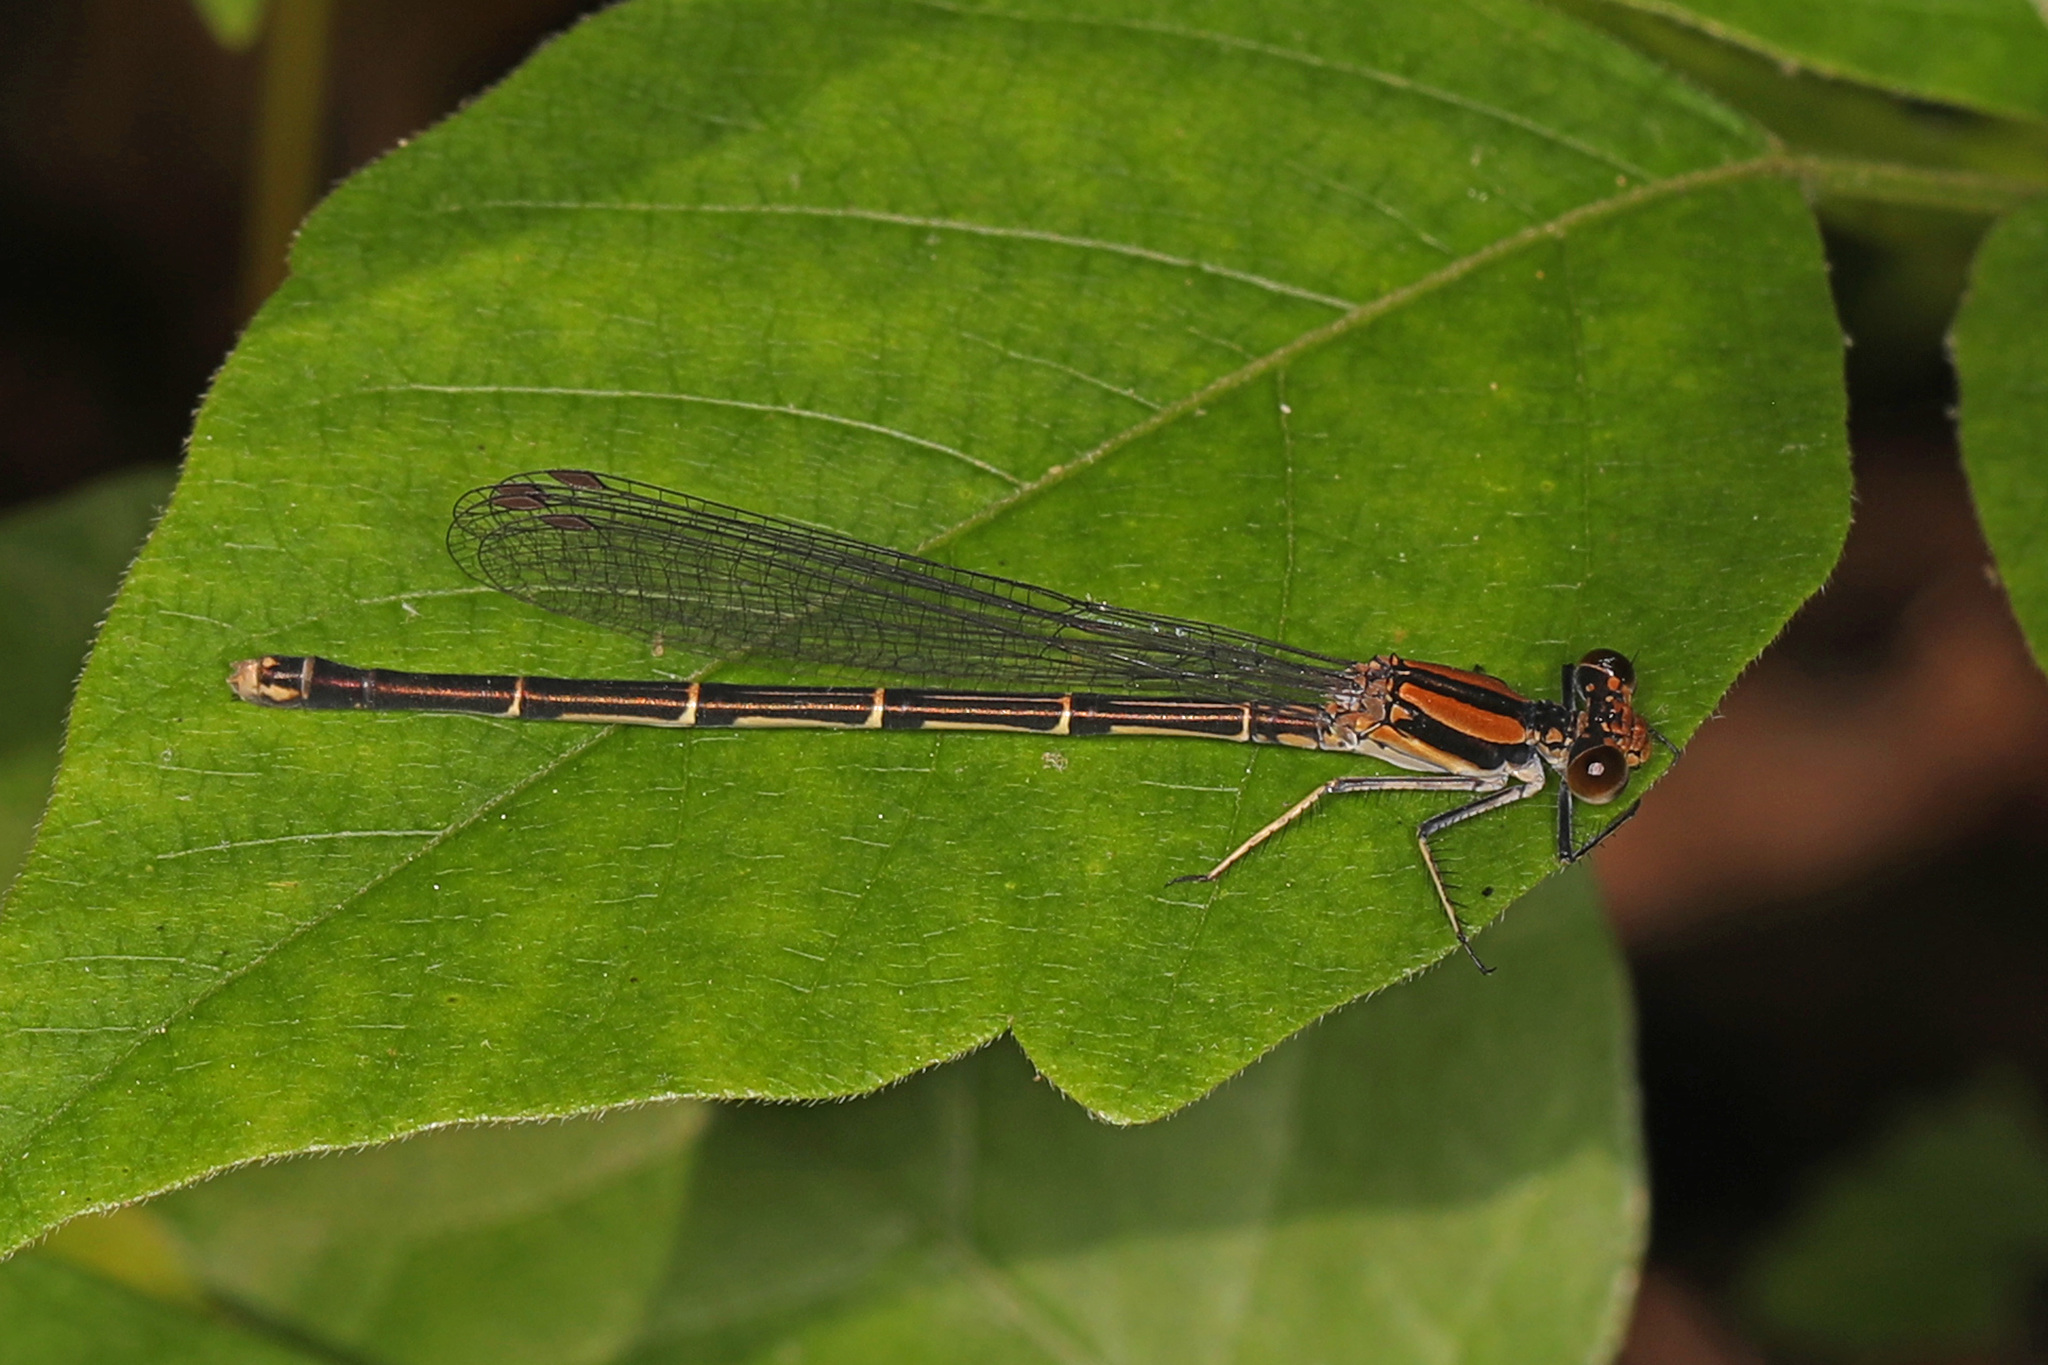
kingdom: Animalia
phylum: Arthropoda
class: Insecta
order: Odonata
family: Coenagrionidae
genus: Argia
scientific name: Argia tibialis
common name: Blue-tipped dancer
